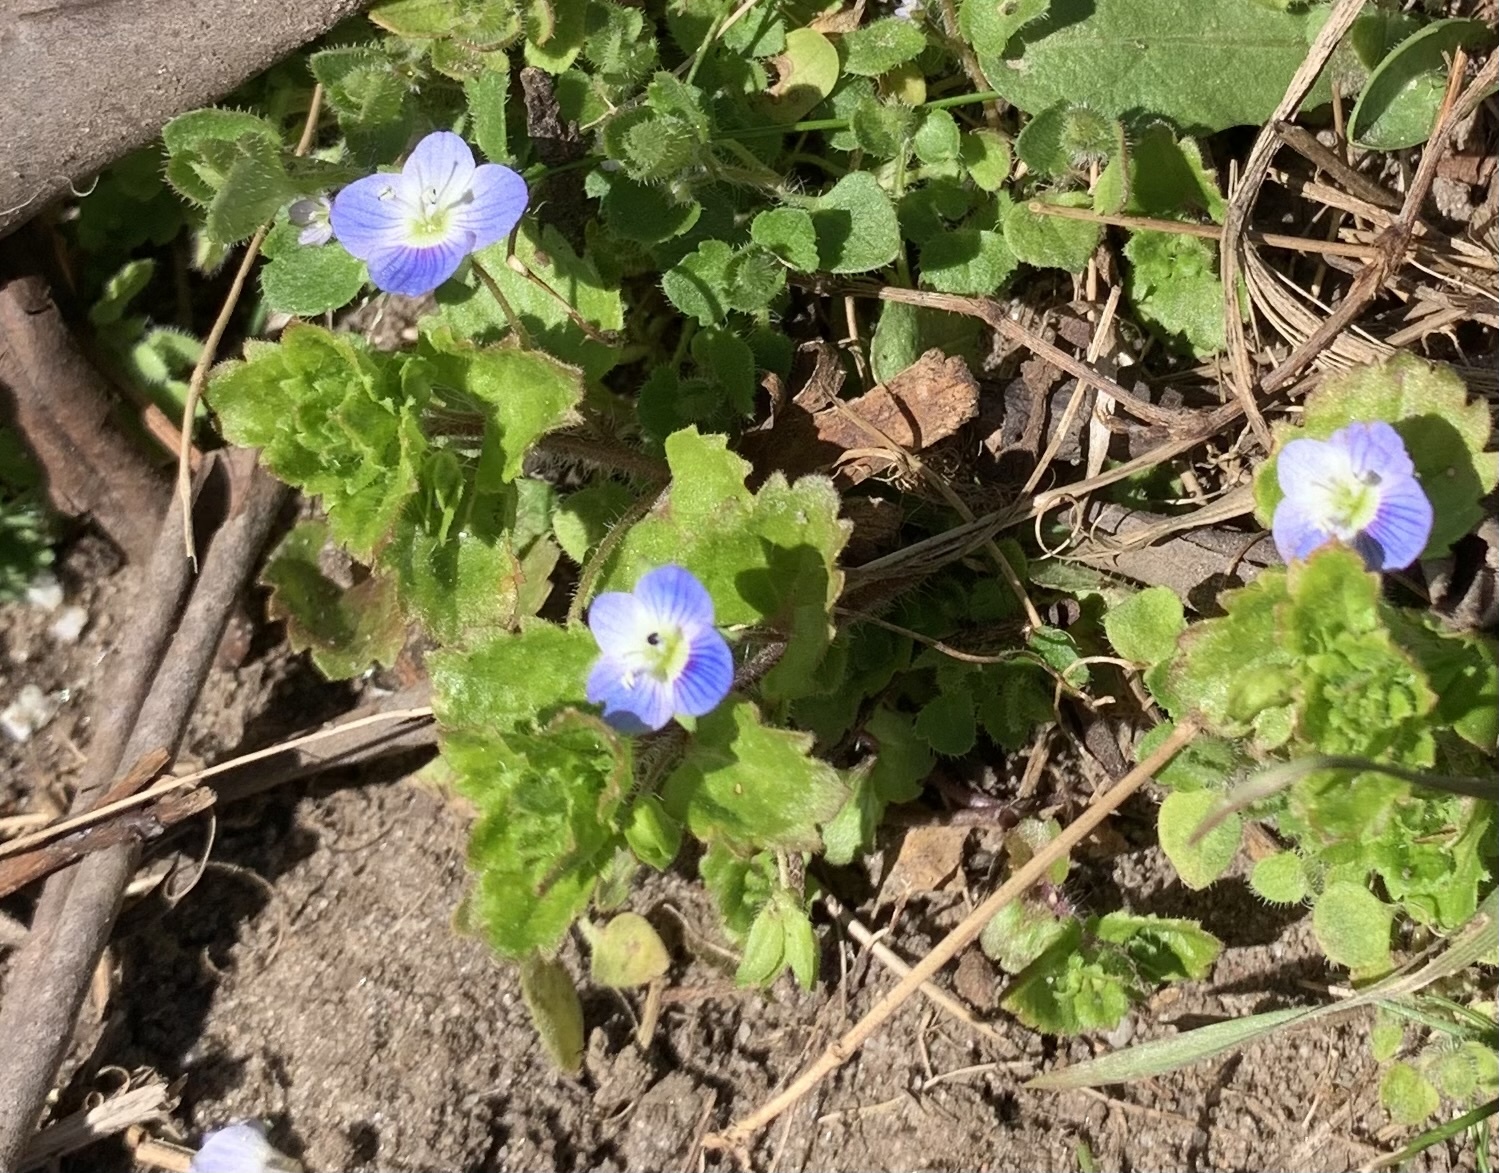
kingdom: Plantae
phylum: Tracheophyta
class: Magnoliopsida
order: Lamiales
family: Plantaginaceae
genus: Veronica
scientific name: Veronica persica
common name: Common field-speedwell
